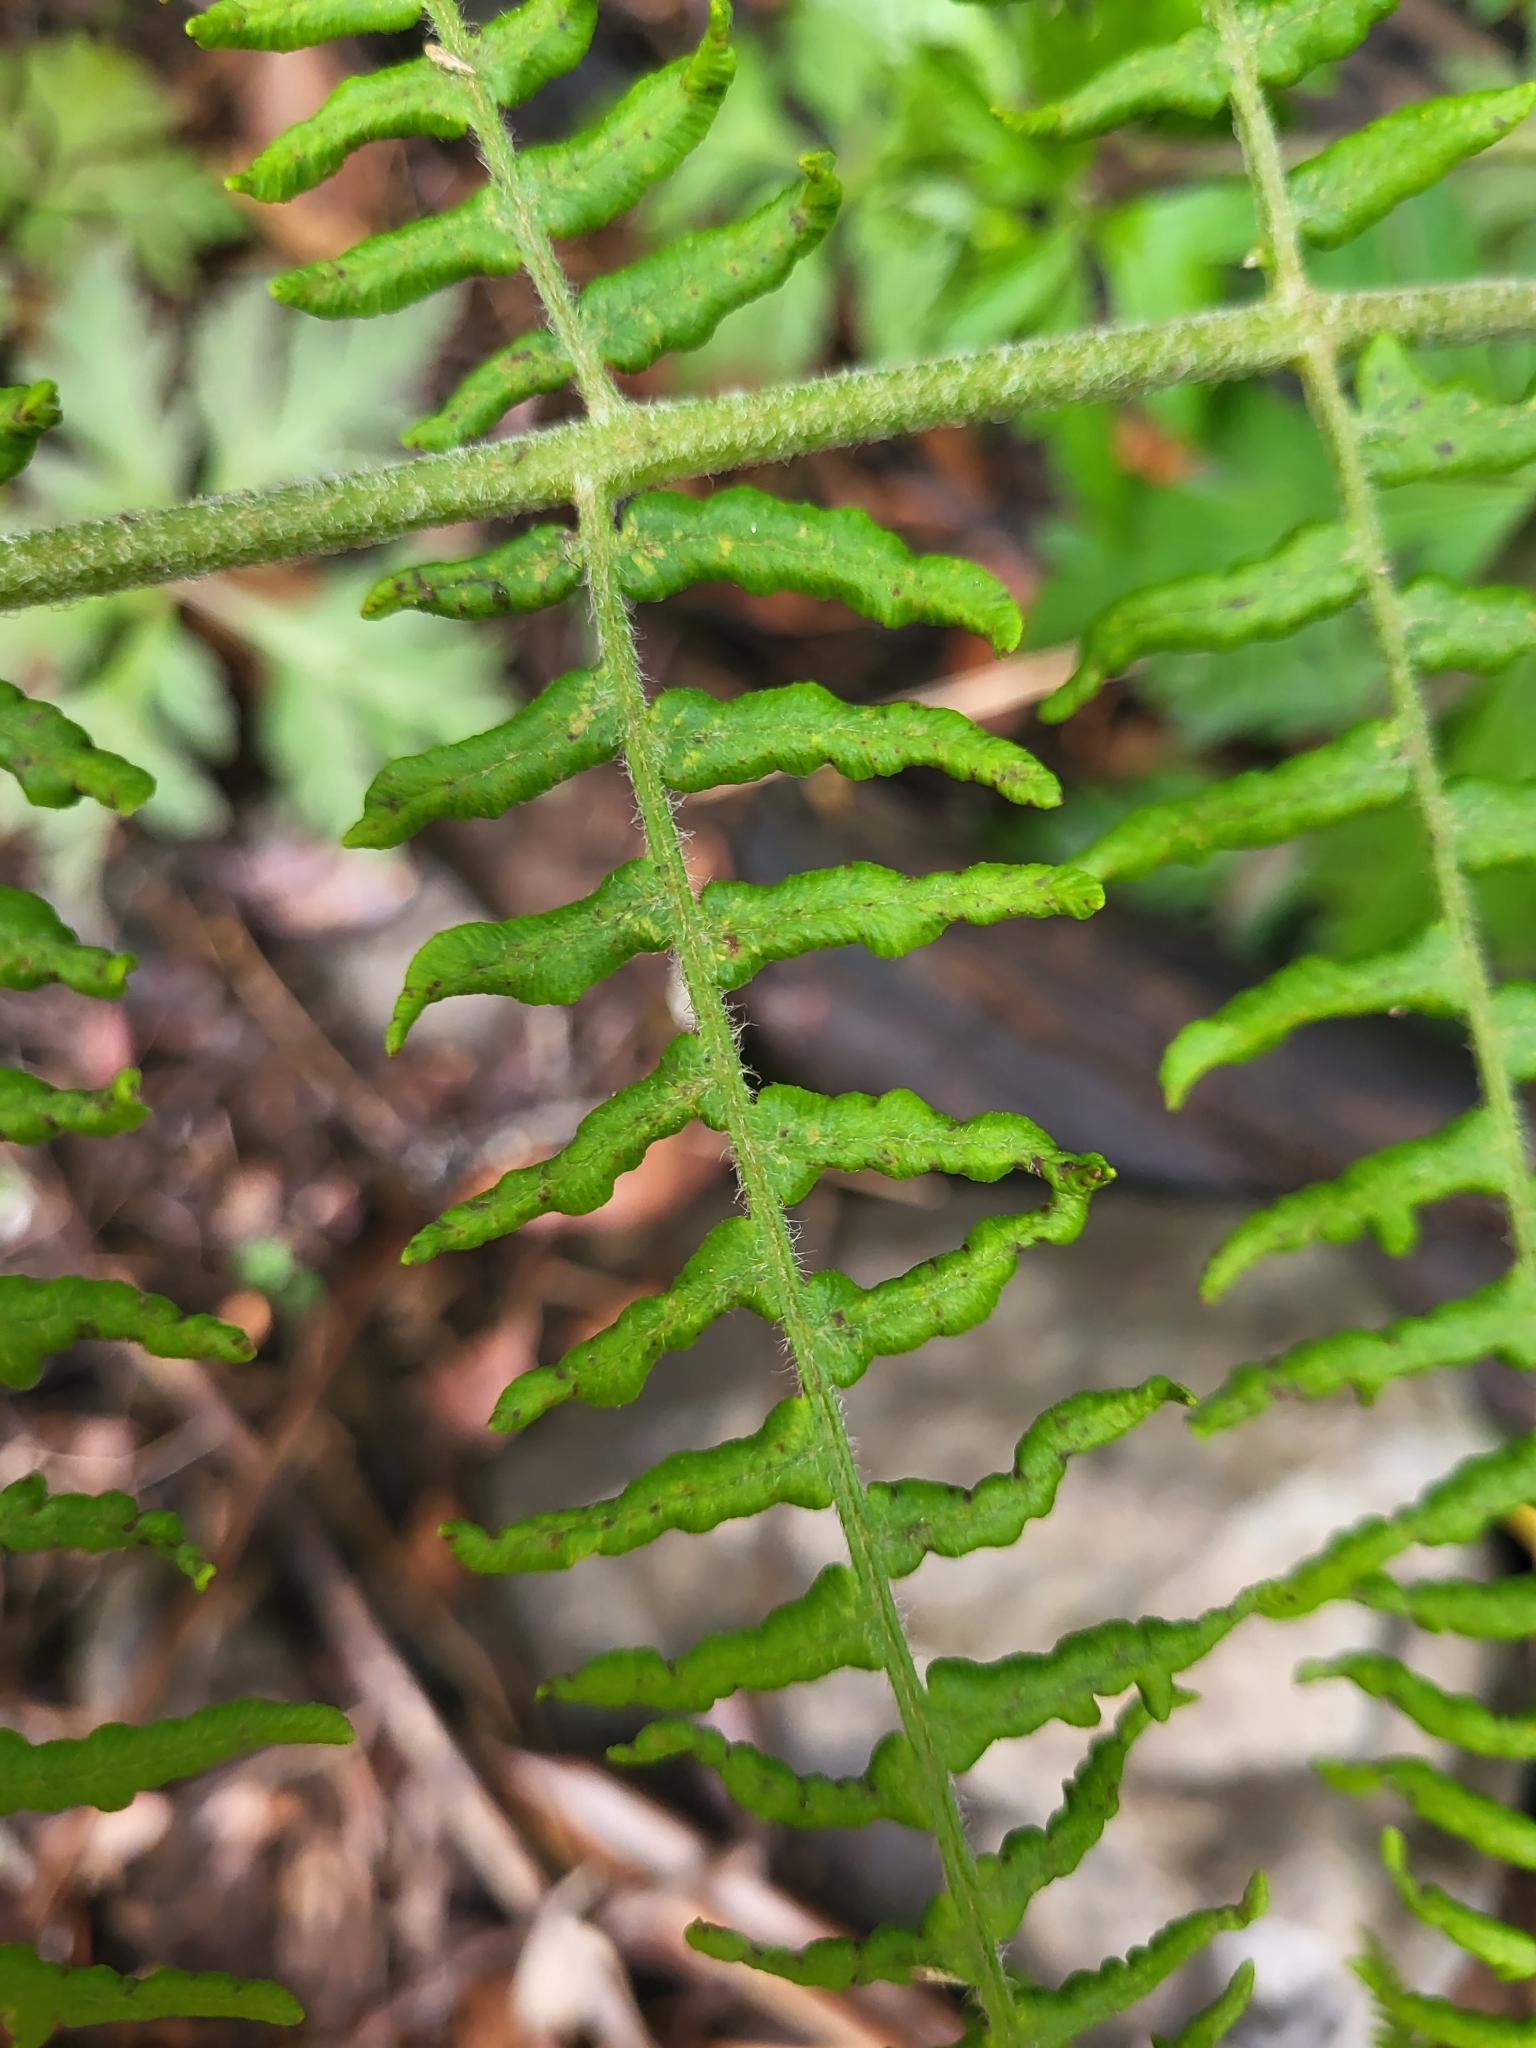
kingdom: Plantae
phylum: Tracheophyta
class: Polypodiopsida
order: Polypodiales
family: Dennstaedtiaceae
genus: Pteridium
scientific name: Pteridium aquilinum
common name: Bracken
